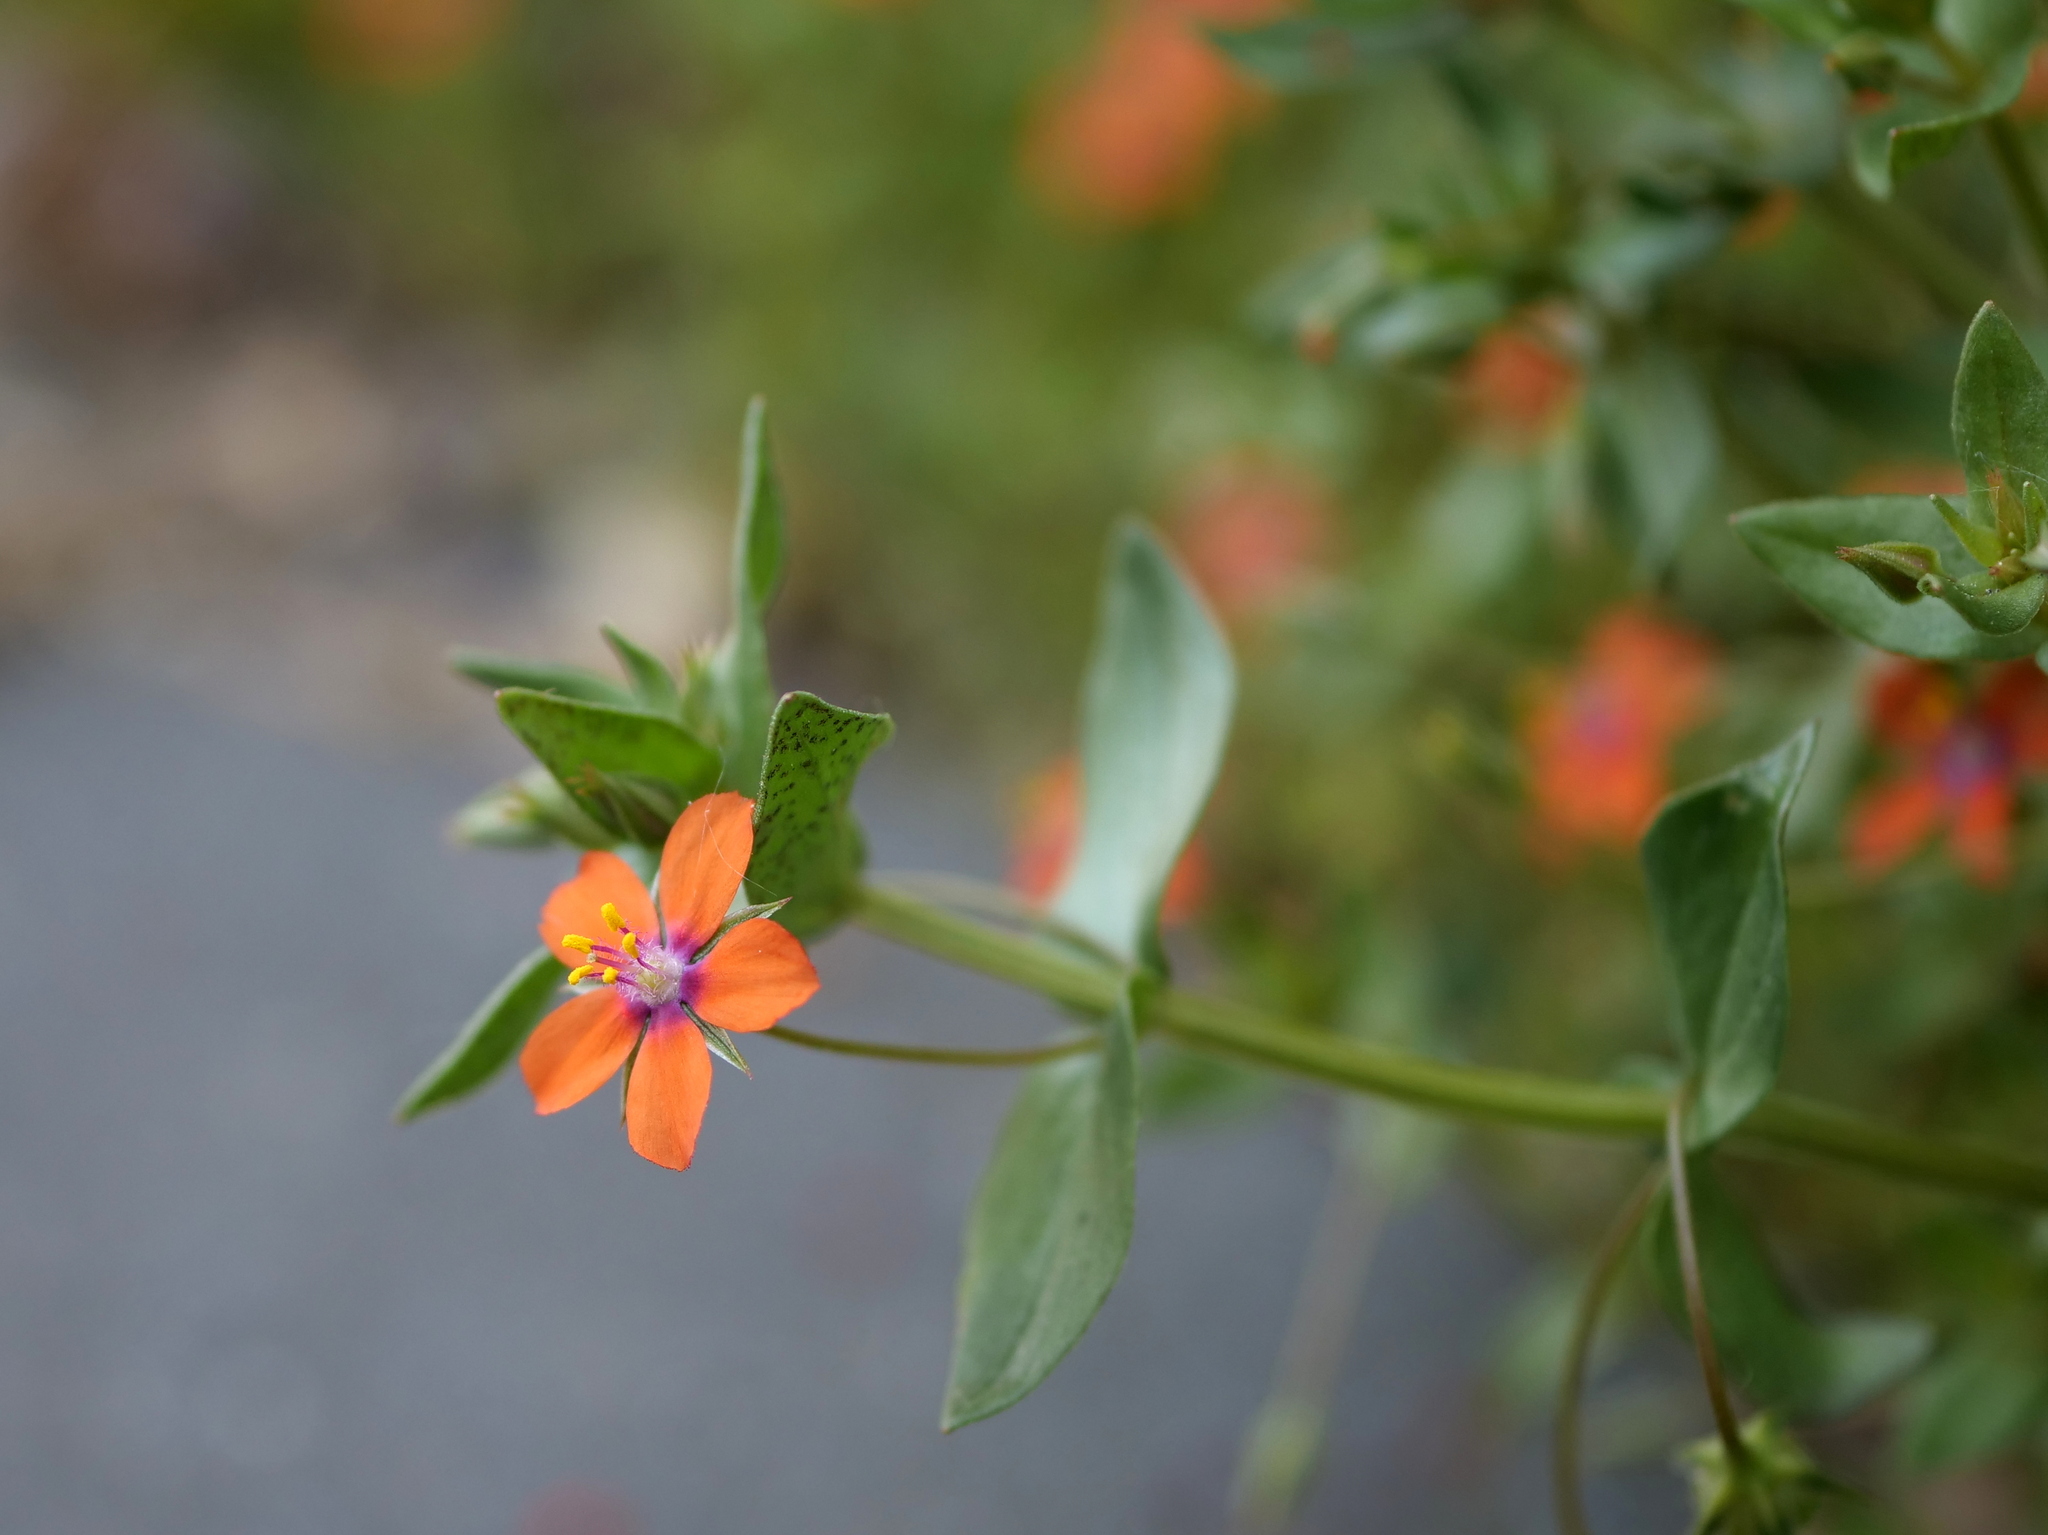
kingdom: Plantae
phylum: Tracheophyta
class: Magnoliopsida
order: Ericales
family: Primulaceae
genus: Lysimachia
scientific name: Lysimachia arvensis
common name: Scarlet pimpernel
